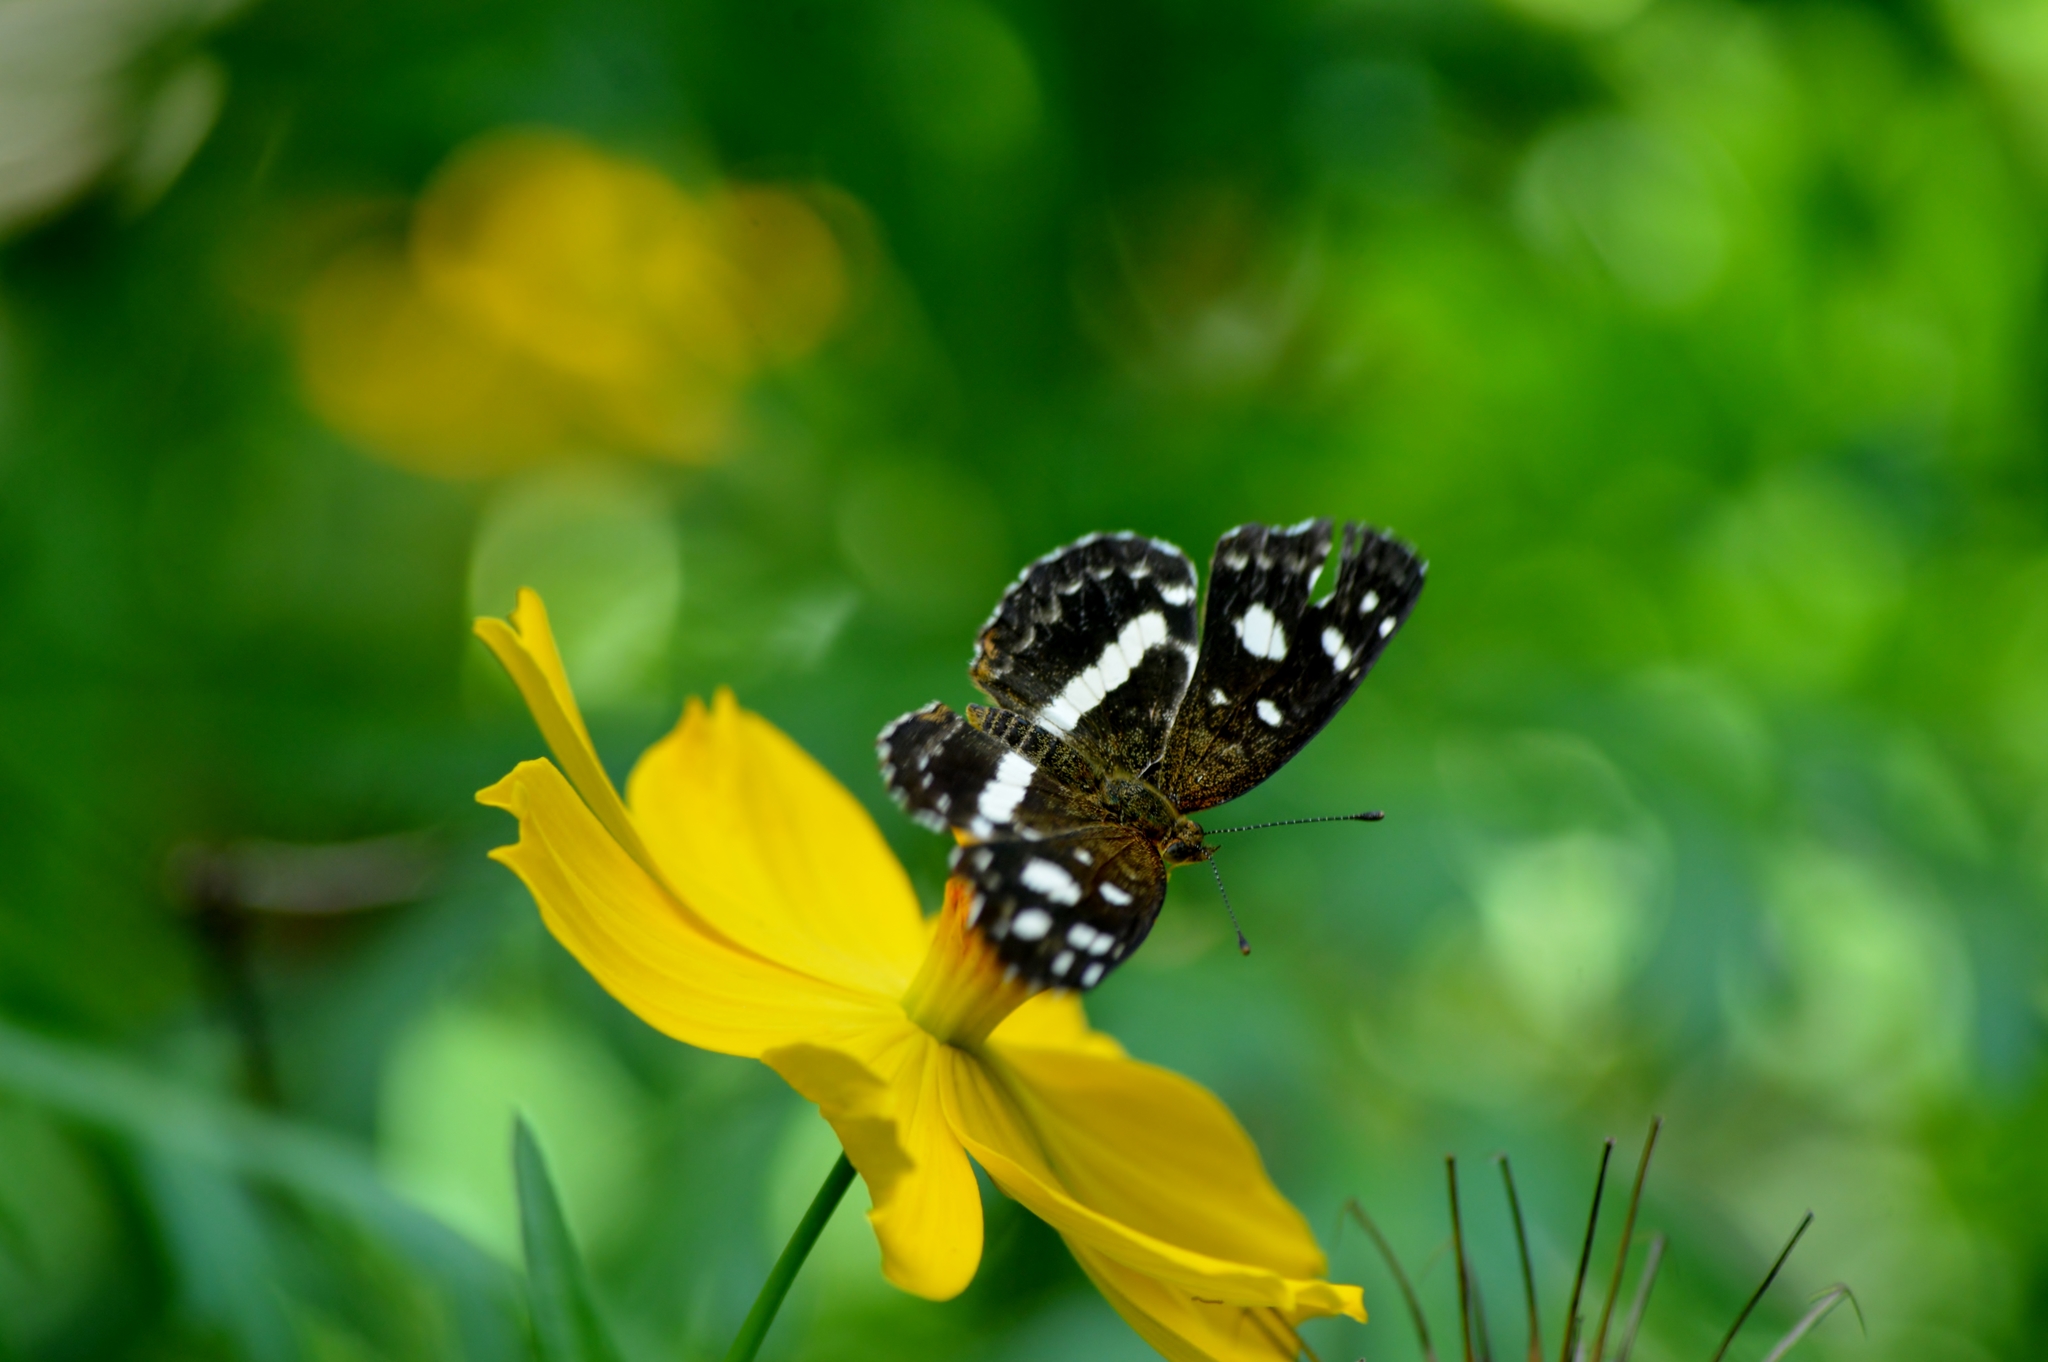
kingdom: Animalia
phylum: Arthropoda
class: Insecta
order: Lepidoptera
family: Nymphalidae
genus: Ortilia
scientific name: Ortilia ithra
